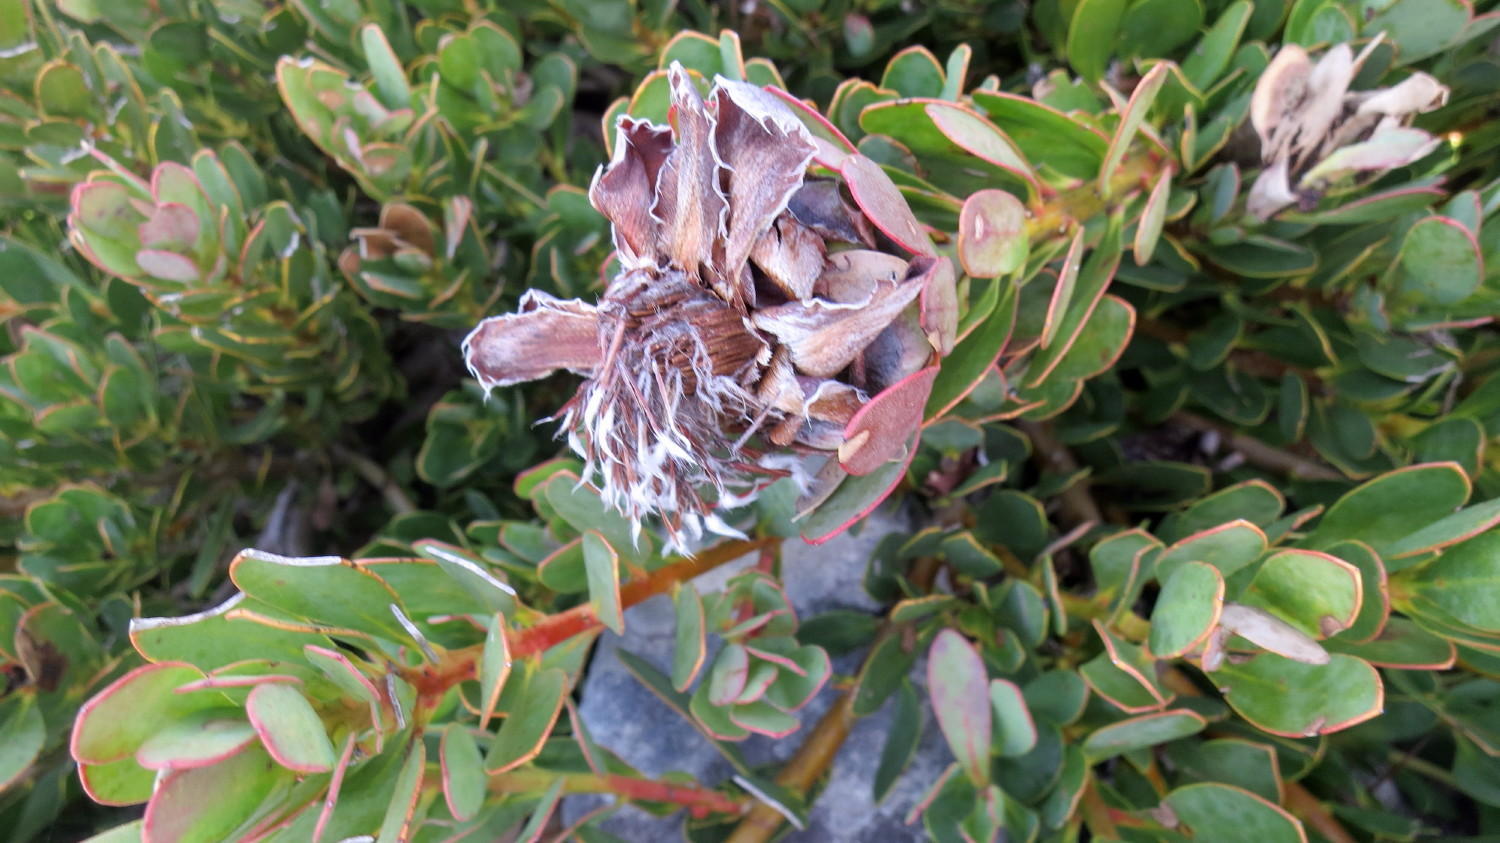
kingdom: Plantae
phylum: Tracheophyta
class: Magnoliopsida
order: Proteales
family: Proteaceae
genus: Protea
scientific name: Protea venusta
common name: Cascade sugarbush
